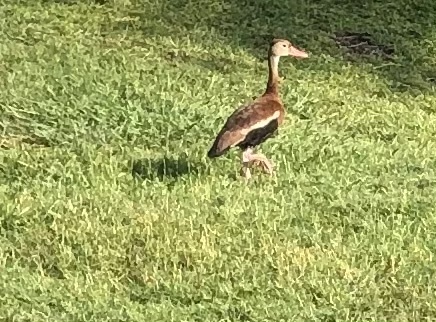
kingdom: Animalia
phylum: Chordata
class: Aves
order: Anseriformes
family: Anatidae
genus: Dendrocygna
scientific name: Dendrocygna autumnalis
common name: Black-bellied whistling duck
